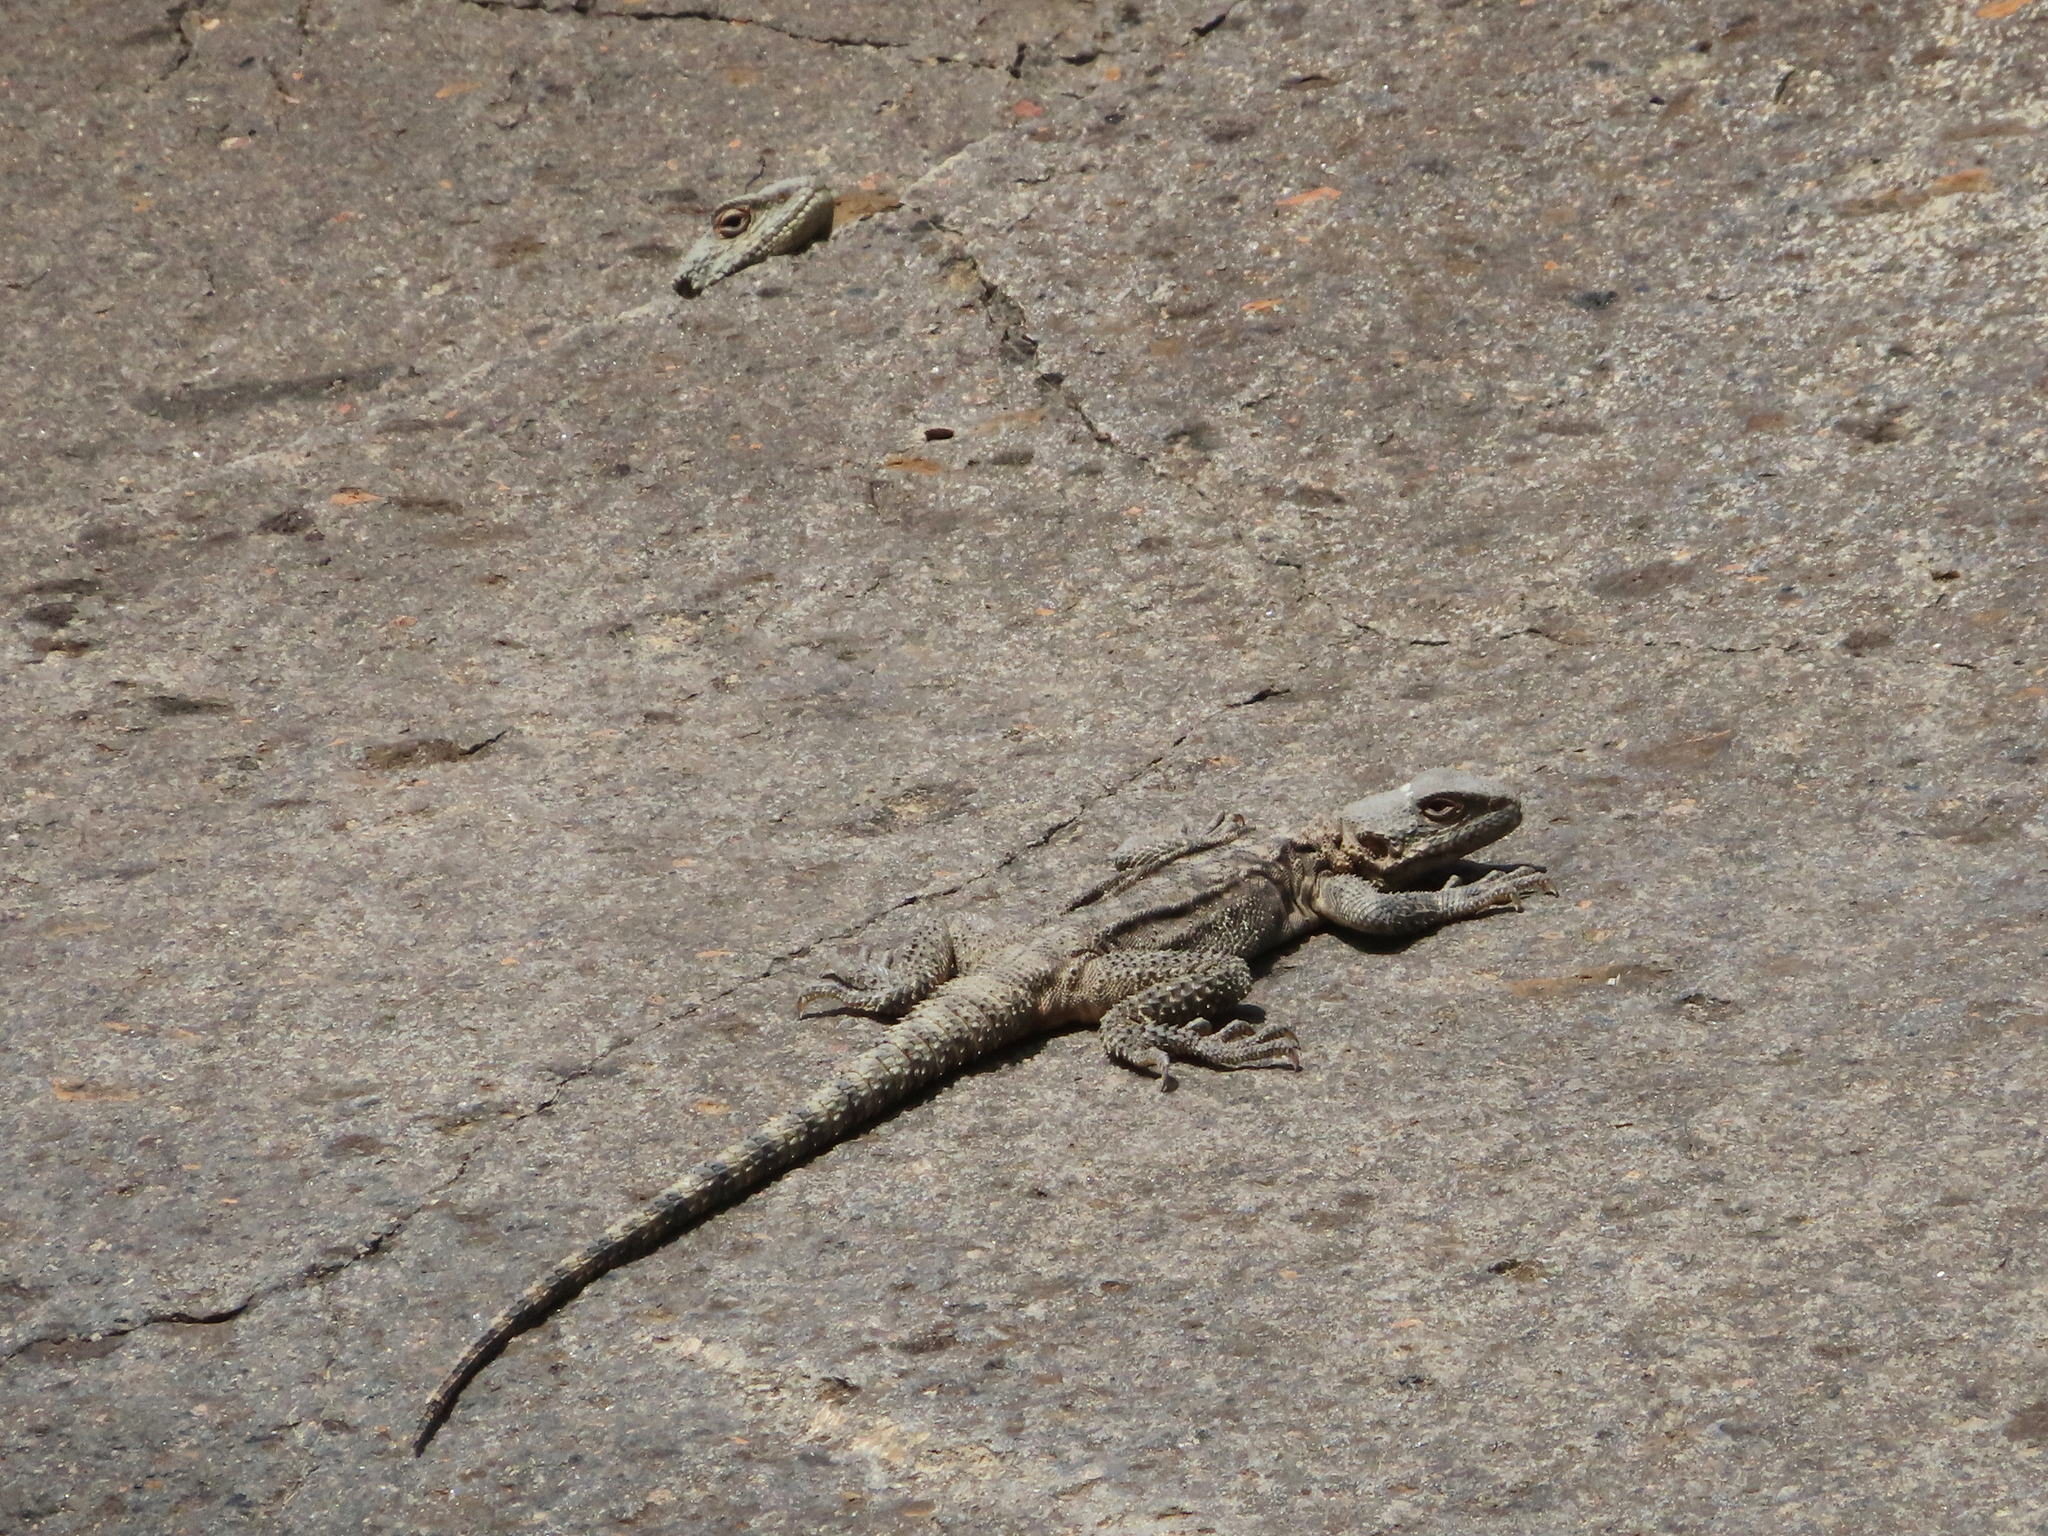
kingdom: Animalia
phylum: Chordata
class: Squamata
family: Agamidae
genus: Paralaudakia
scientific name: Paralaudakia caucasia
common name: Caucasian agama
